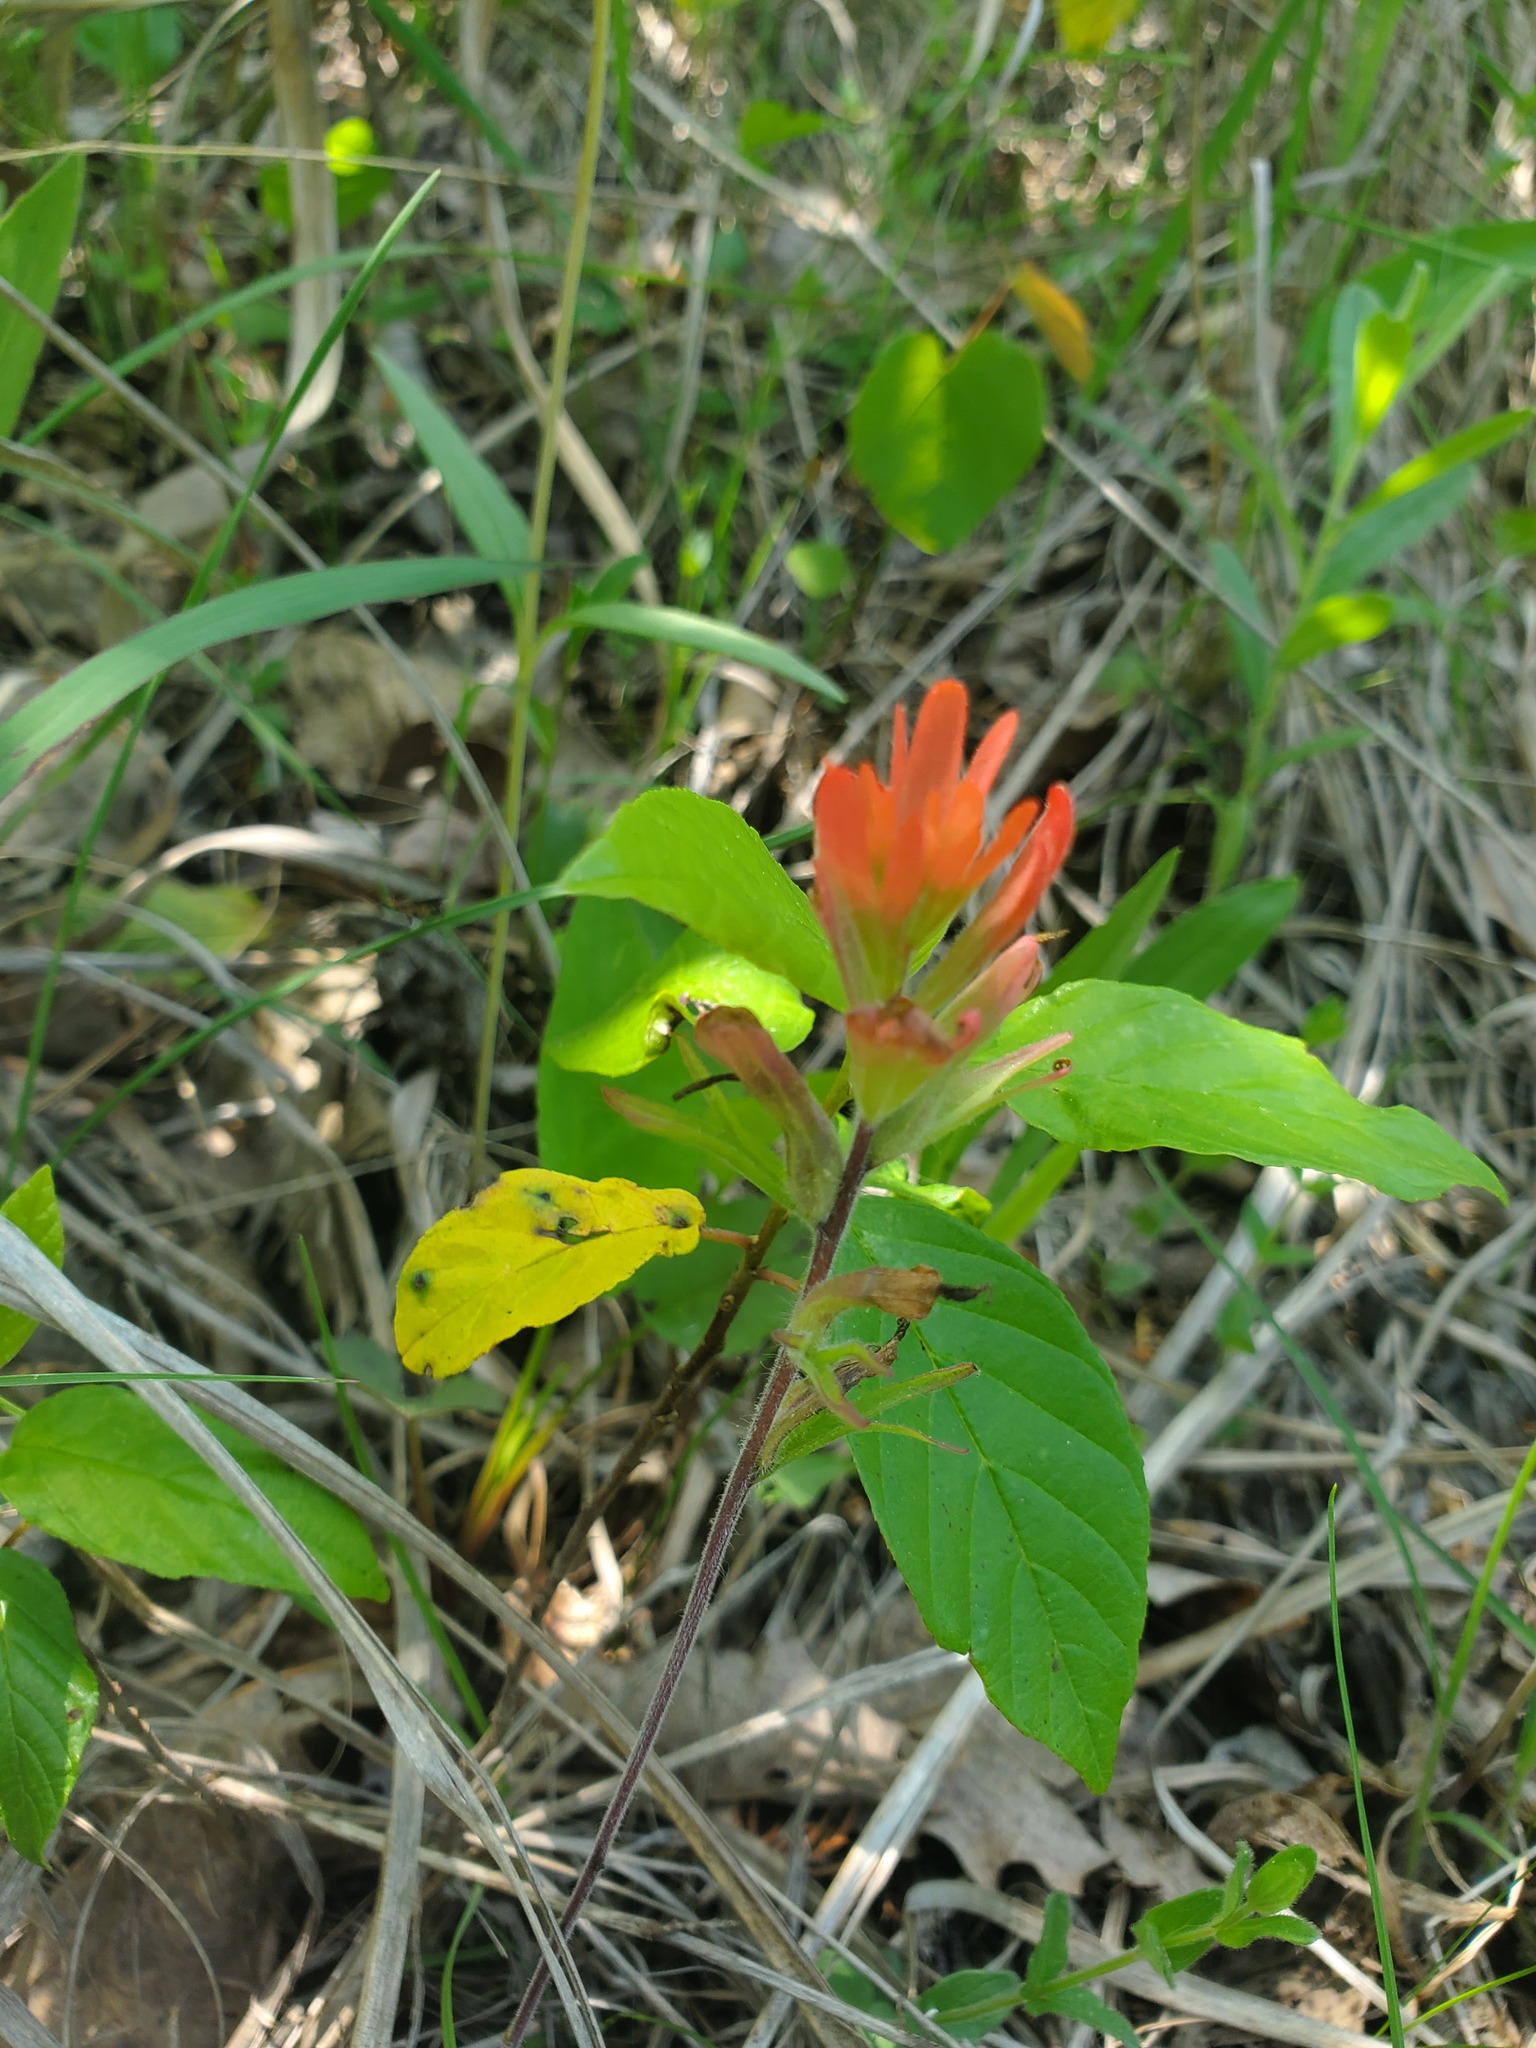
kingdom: Plantae
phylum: Tracheophyta
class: Magnoliopsida
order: Lamiales
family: Orobanchaceae
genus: Castilleja
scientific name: Castilleja coccinea
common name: Scarlet paintbrush
